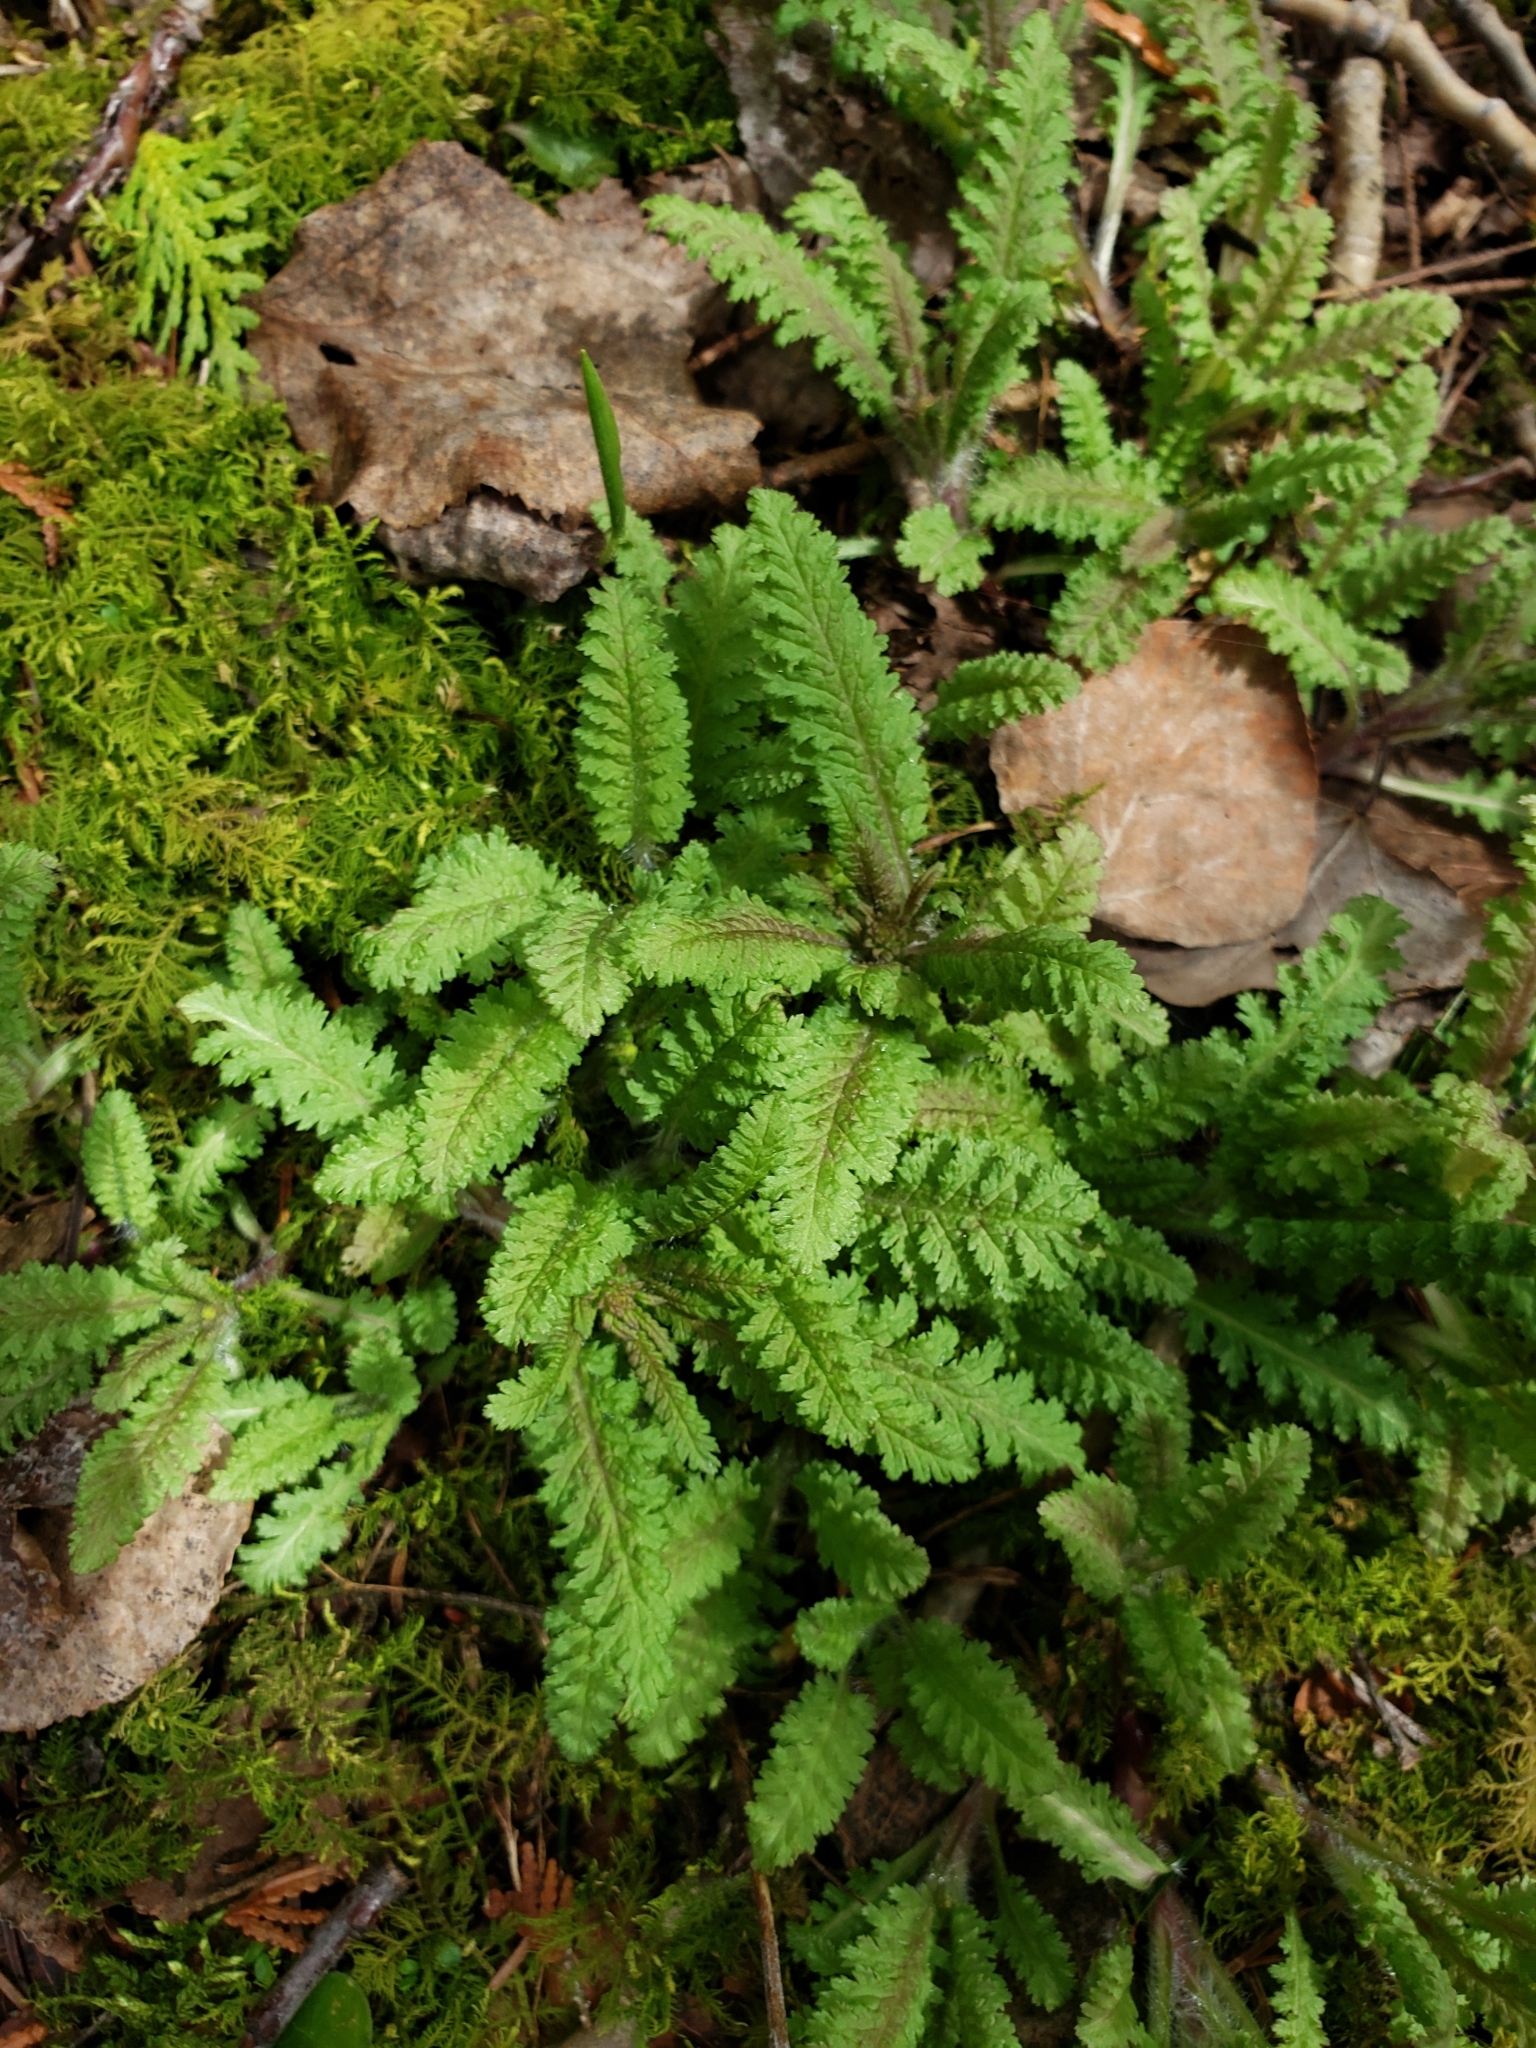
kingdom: Plantae
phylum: Tracheophyta
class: Magnoliopsida
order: Lamiales
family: Orobanchaceae
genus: Pedicularis
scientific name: Pedicularis canadensis
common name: Early lousewort
